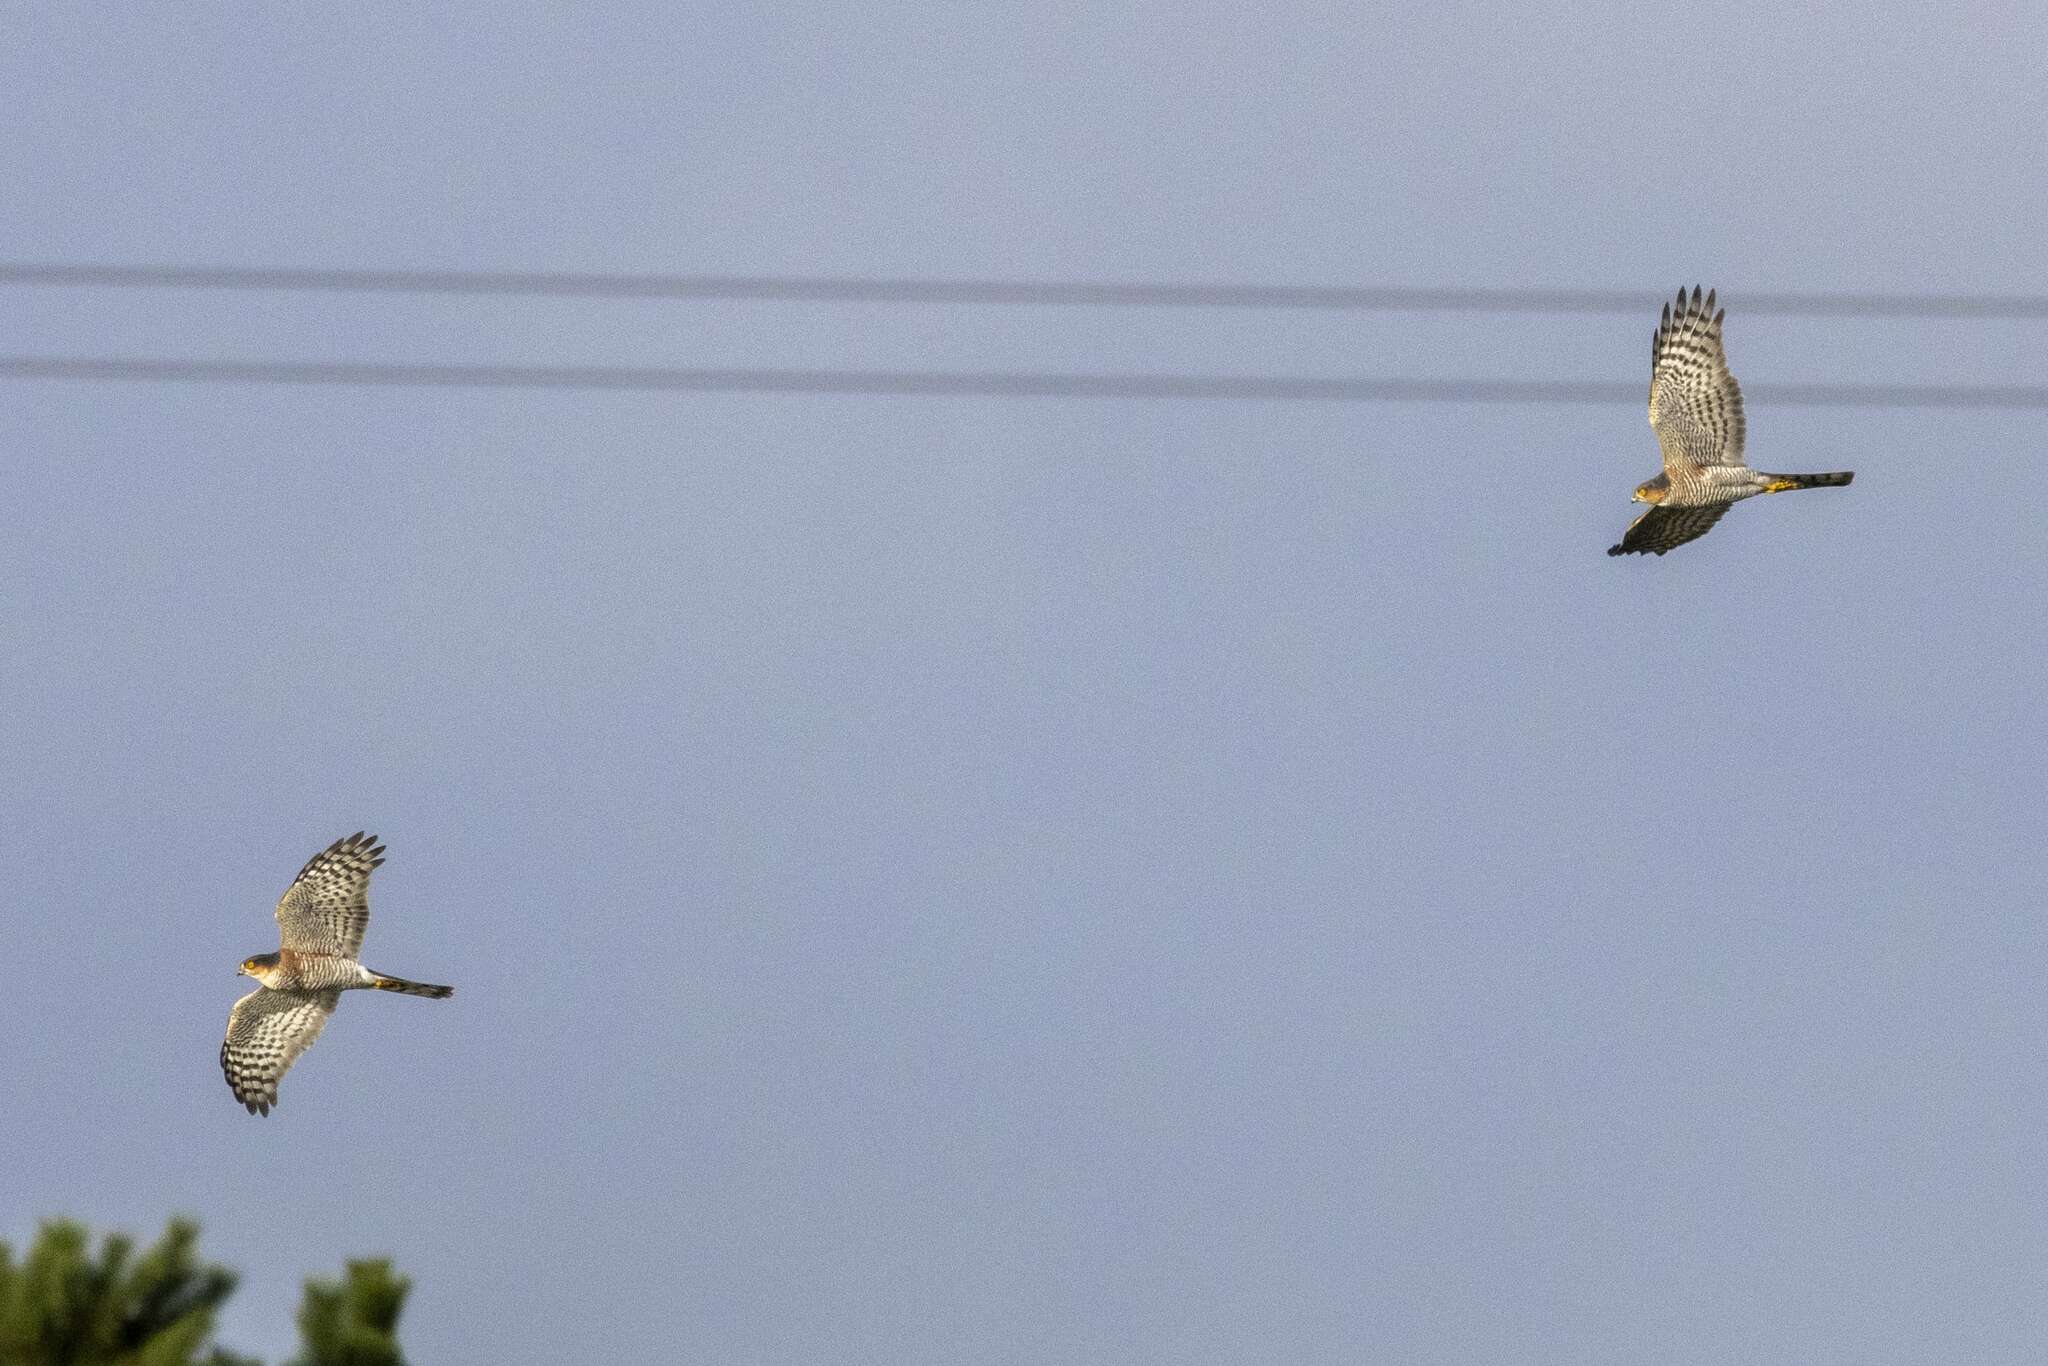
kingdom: Animalia
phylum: Chordata
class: Aves
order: Accipitriformes
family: Accipitridae
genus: Accipiter
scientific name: Accipiter nisus
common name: Eurasian sparrowhawk
